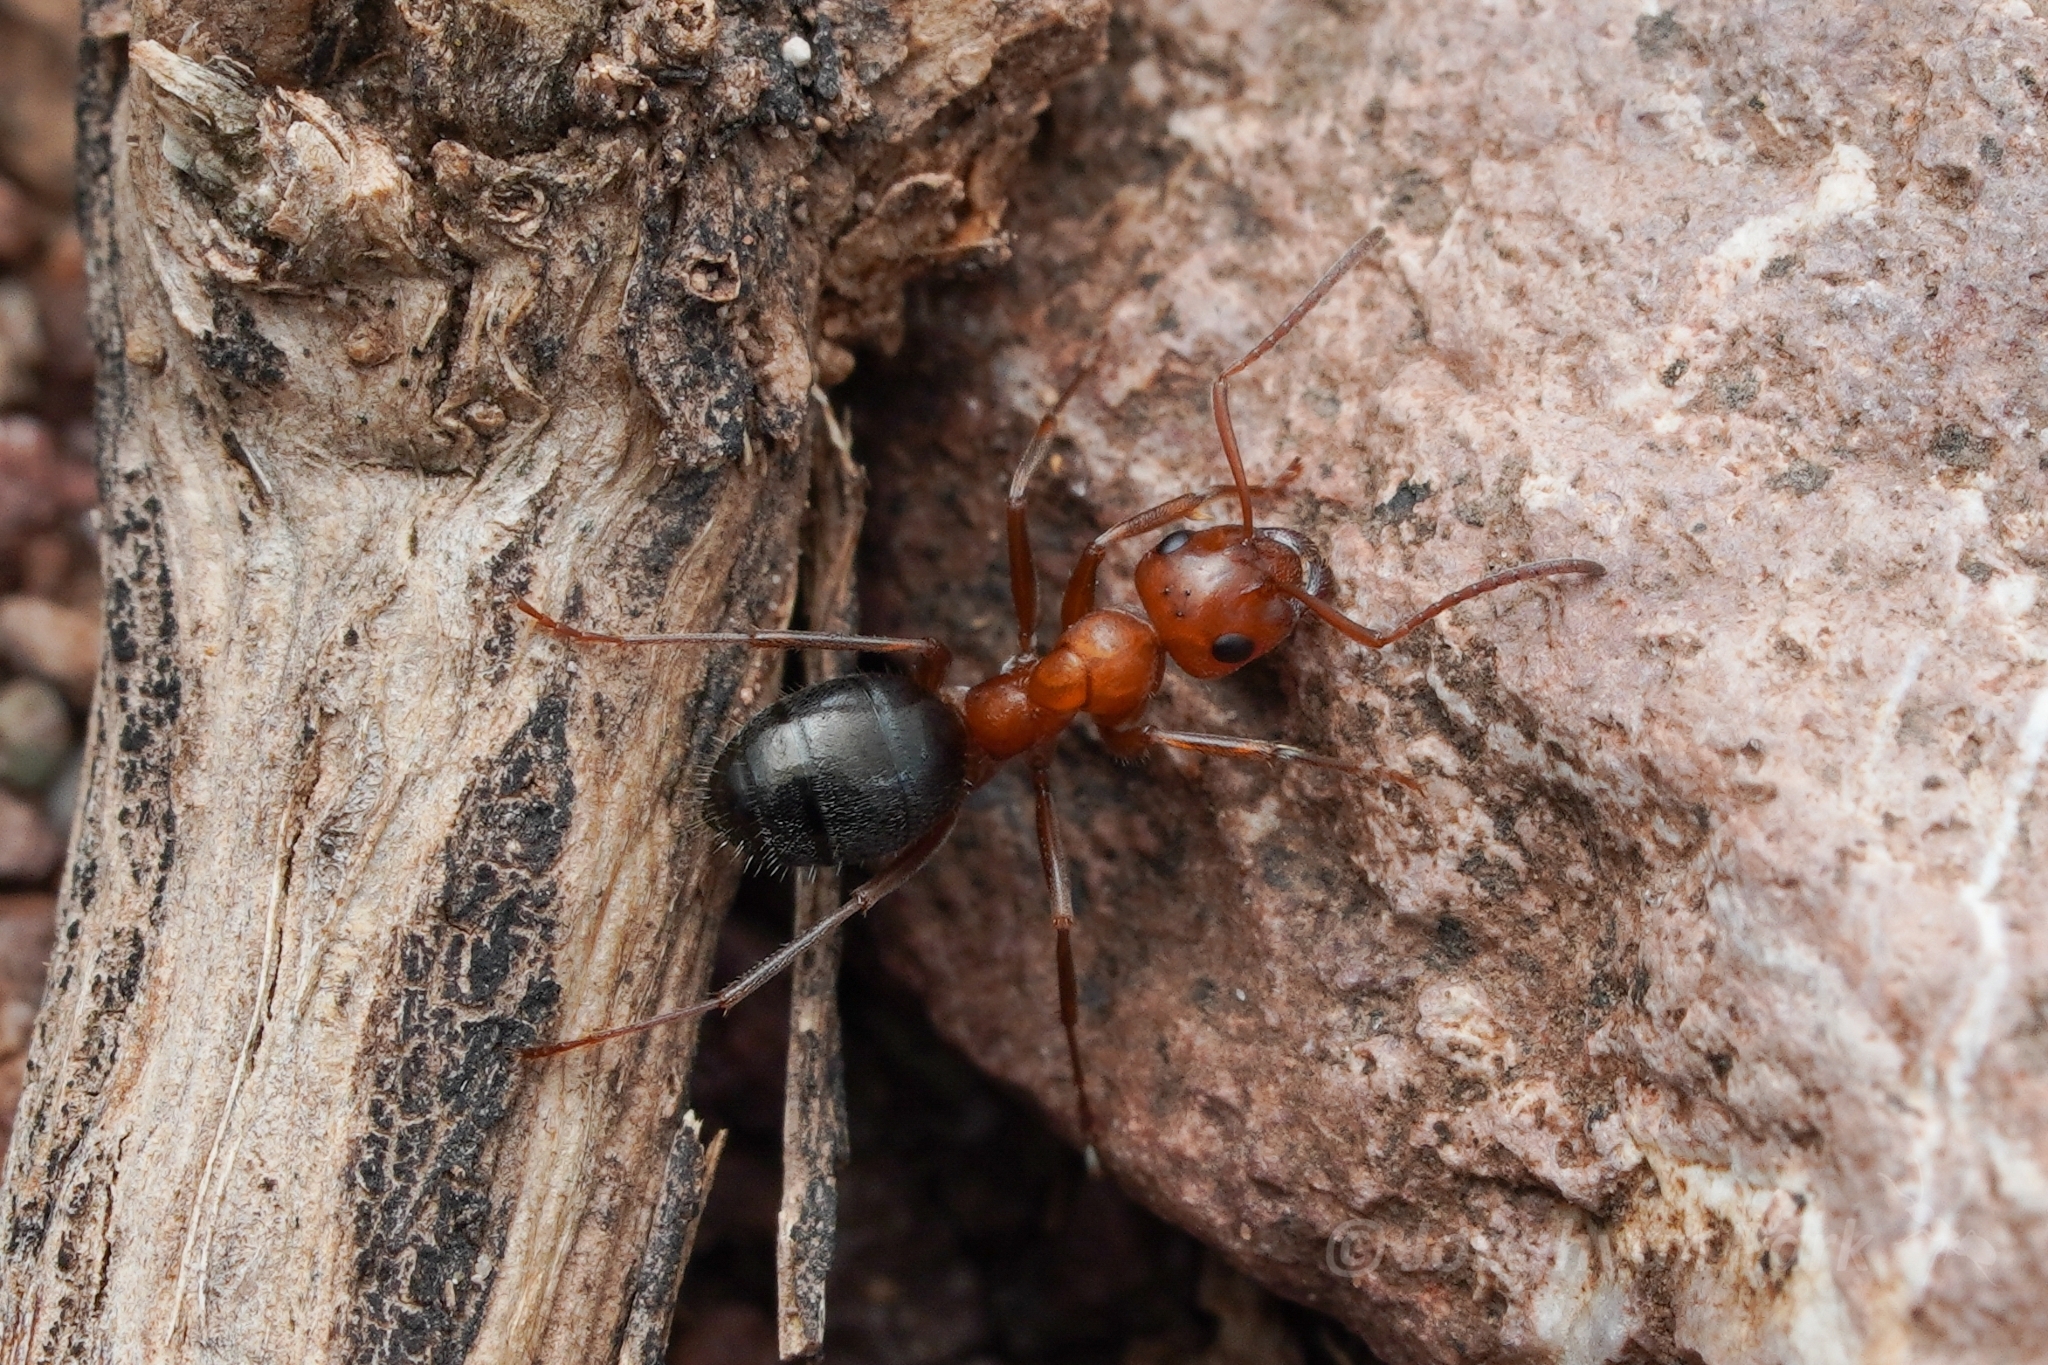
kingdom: Animalia
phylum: Arthropoda
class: Insecta
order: Hymenoptera
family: Formicidae
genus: Formica
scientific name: Formica perpilosa
